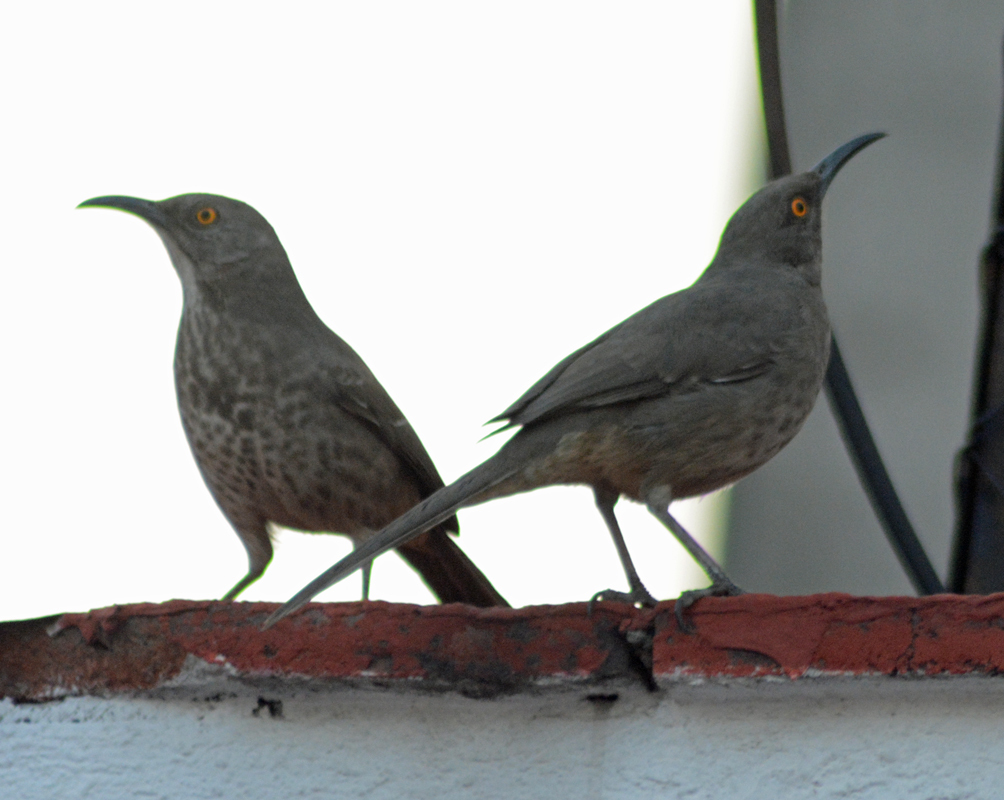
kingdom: Animalia
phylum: Chordata
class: Aves
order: Passeriformes
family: Mimidae
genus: Toxostoma
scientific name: Toxostoma curvirostre
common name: Curve-billed thrasher
